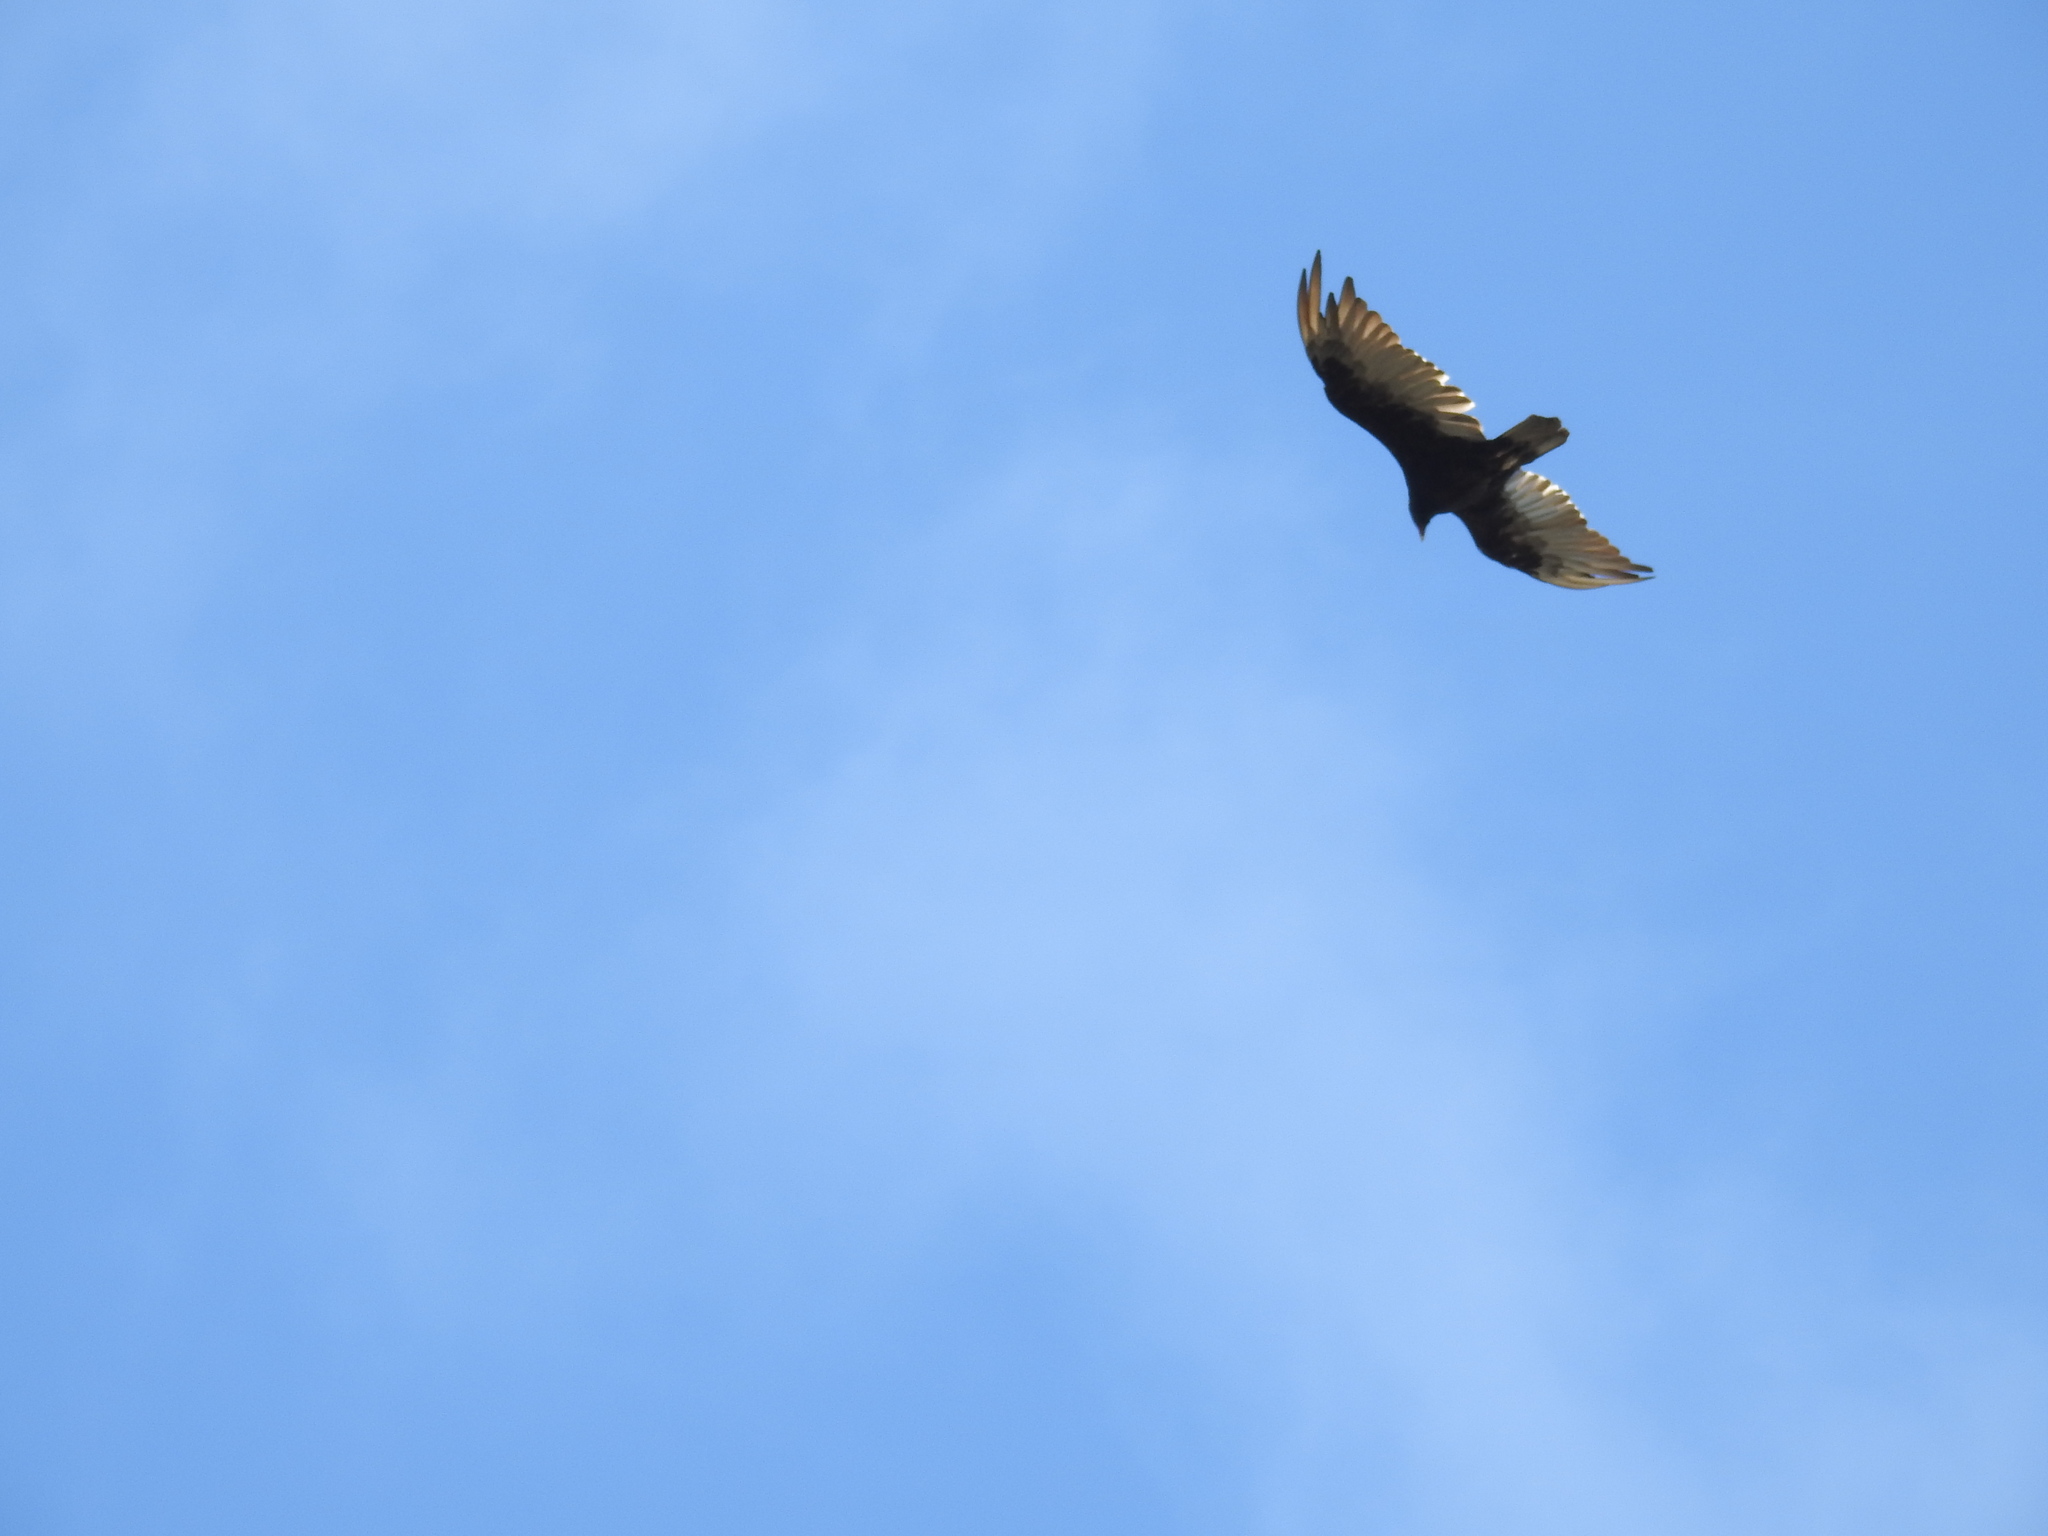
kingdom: Animalia
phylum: Chordata
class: Aves
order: Accipitriformes
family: Cathartidae
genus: Cathartes
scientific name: Cathartes aura
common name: Turkey vulture
